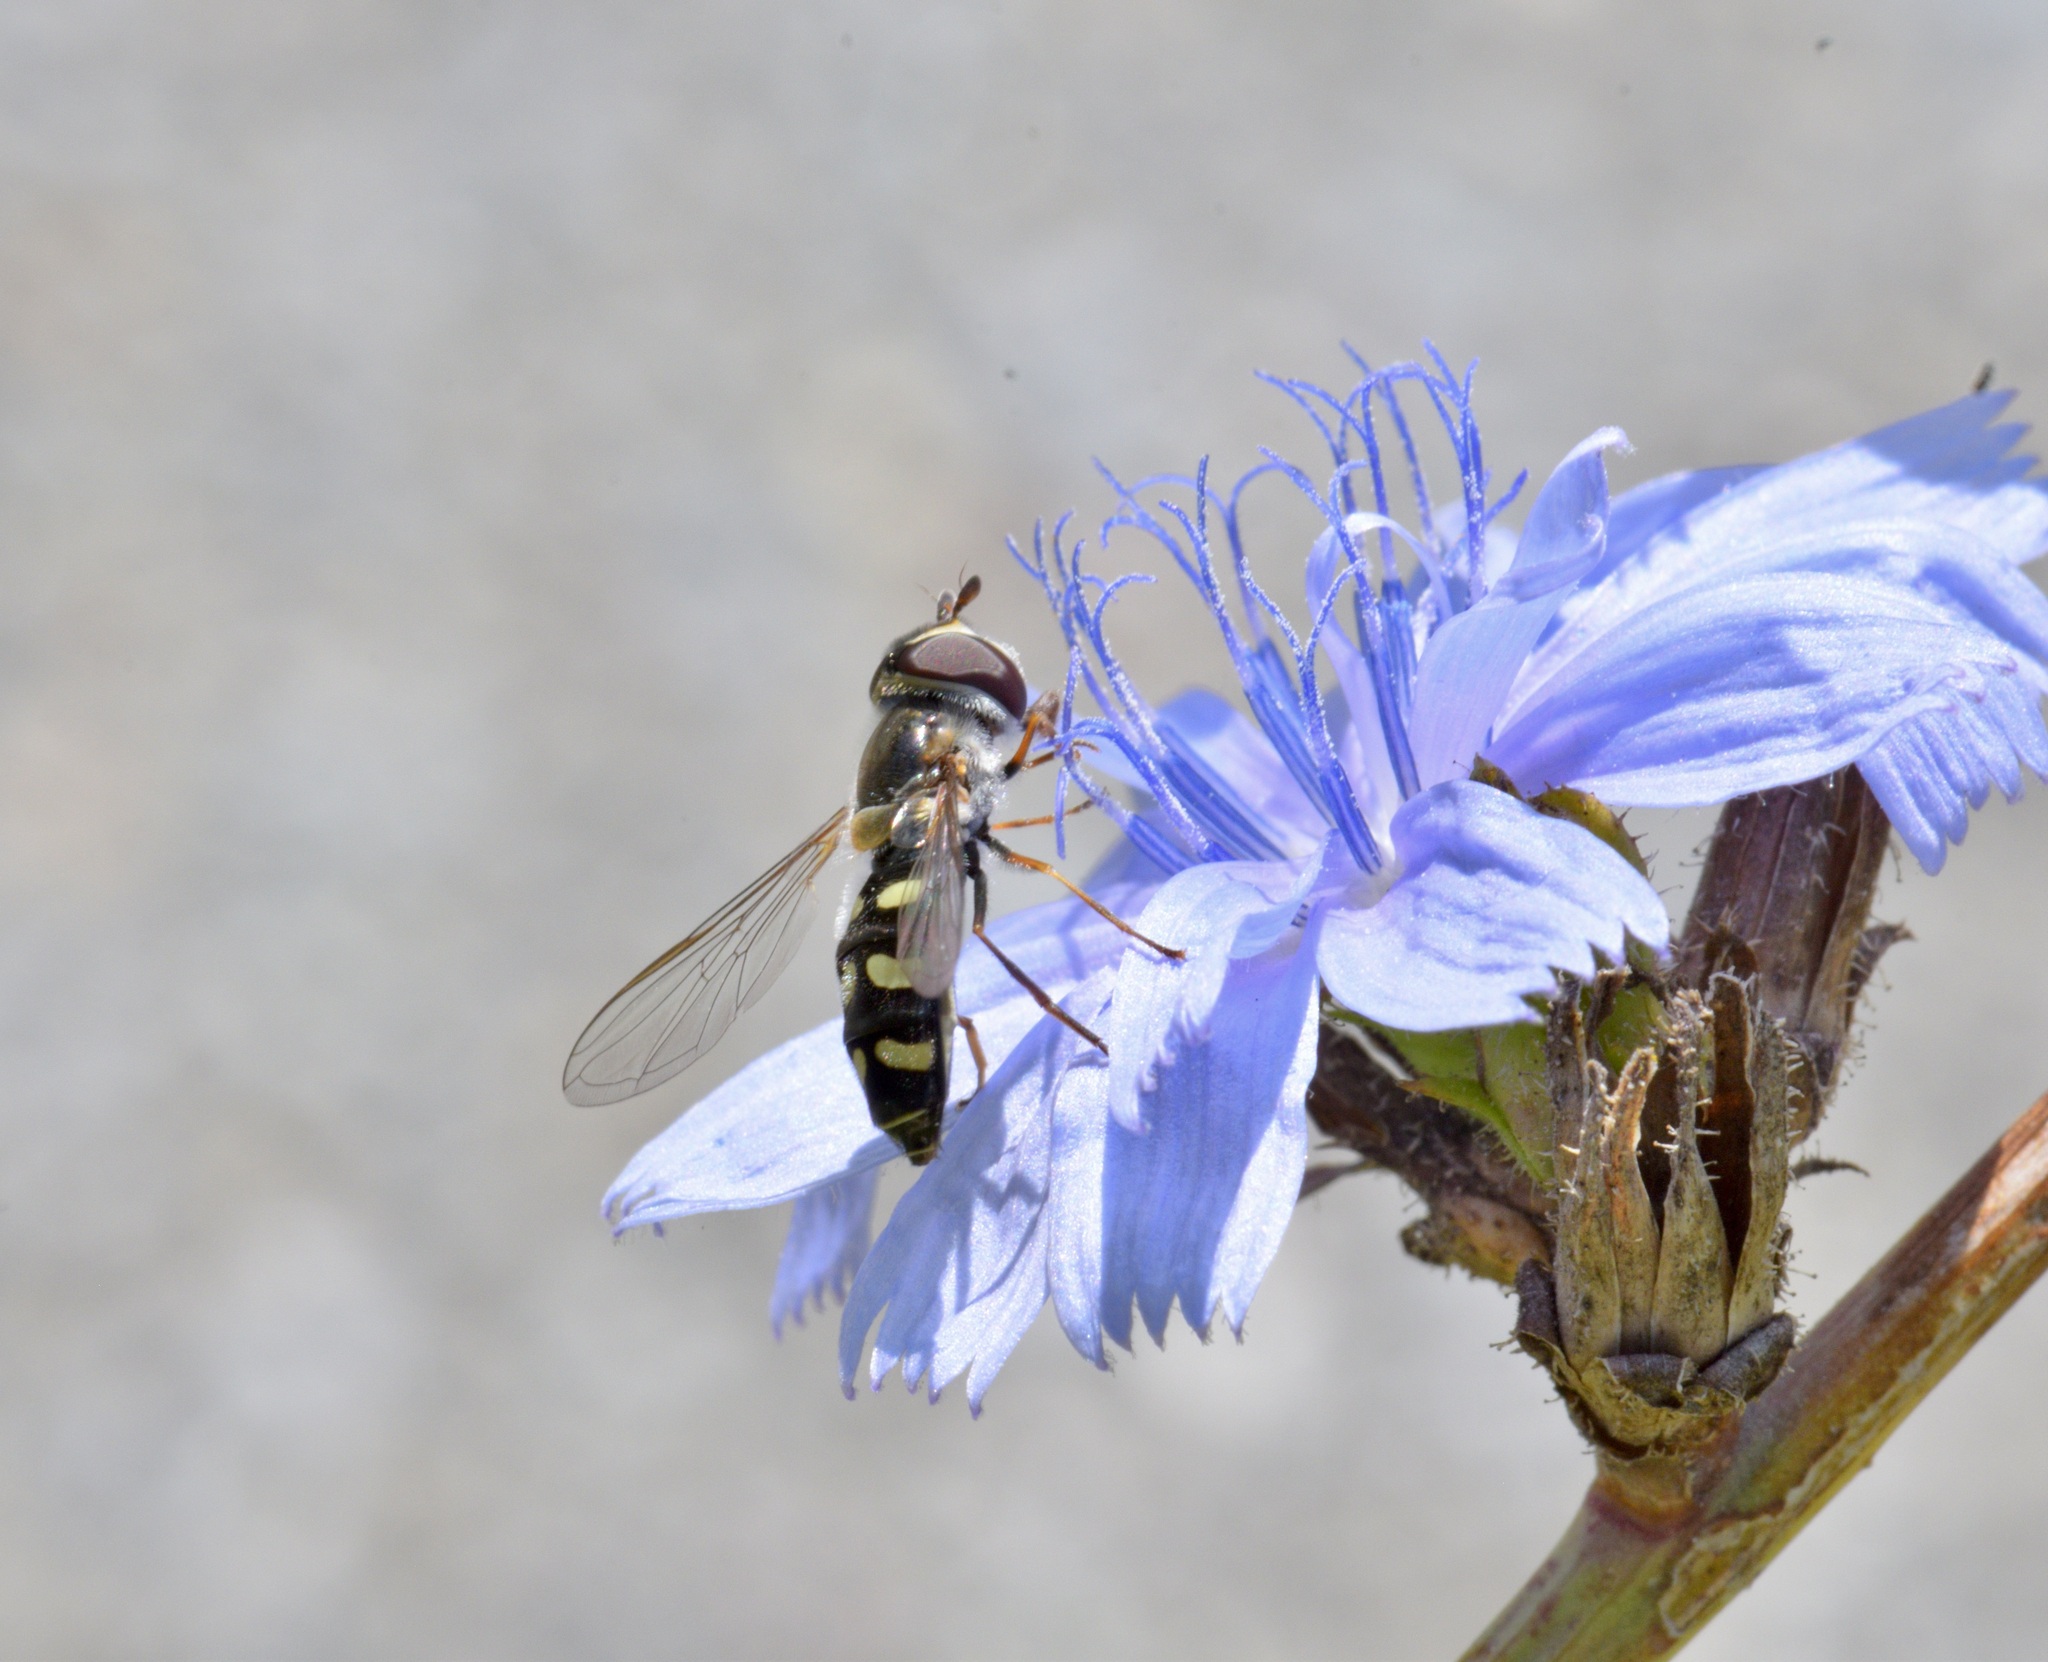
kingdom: Animalia
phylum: Arthropoda
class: Insecta
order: Diptera
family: Syrphidae
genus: Eupeodes
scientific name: Eupeodes perplexus
